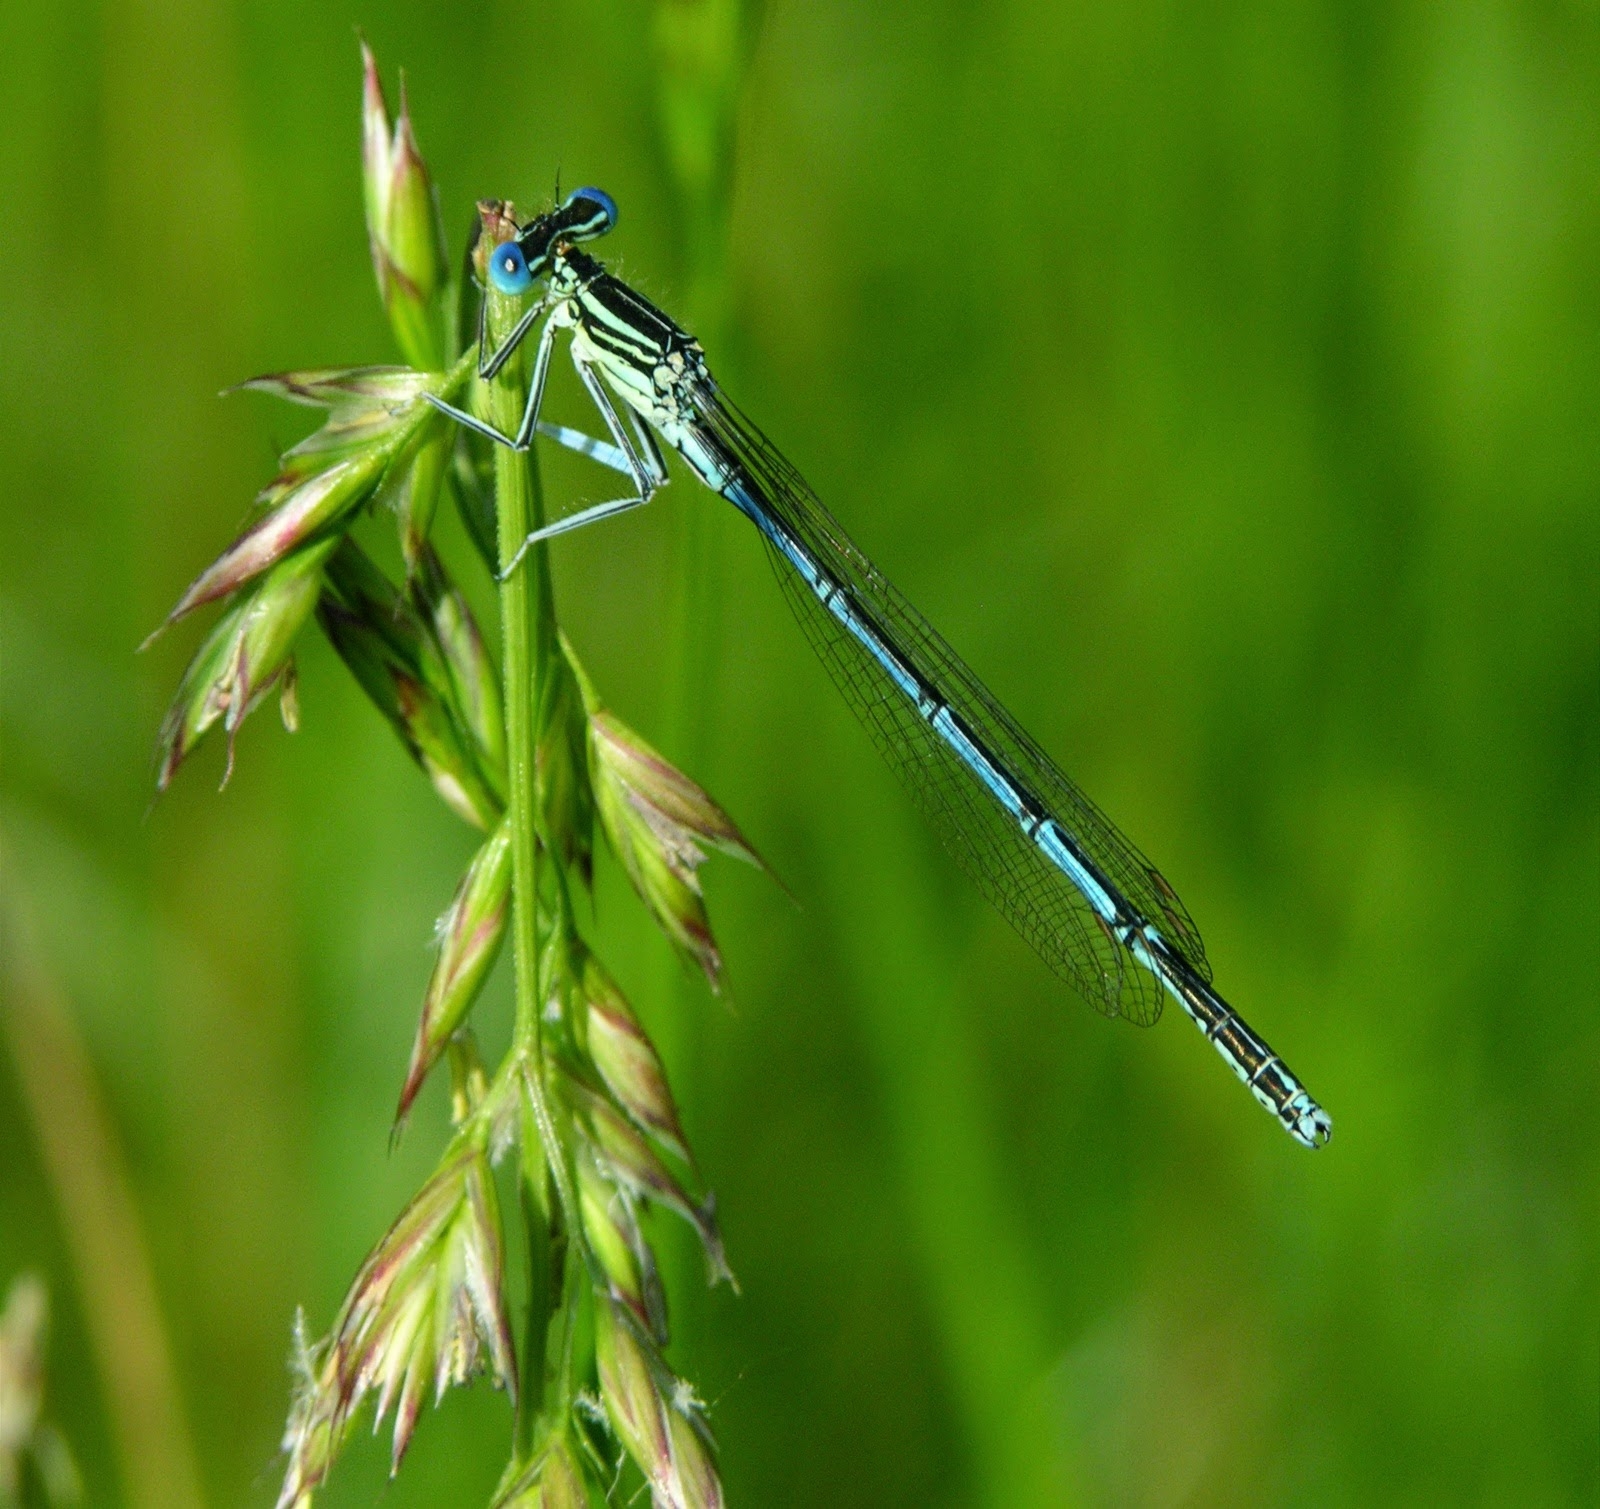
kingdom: Animalia
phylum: Arthropoda
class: Insecta
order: Odonata
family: Platycnemididae
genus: Platycnemis
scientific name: Platycnemis pennipes
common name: White-legged damselfly
